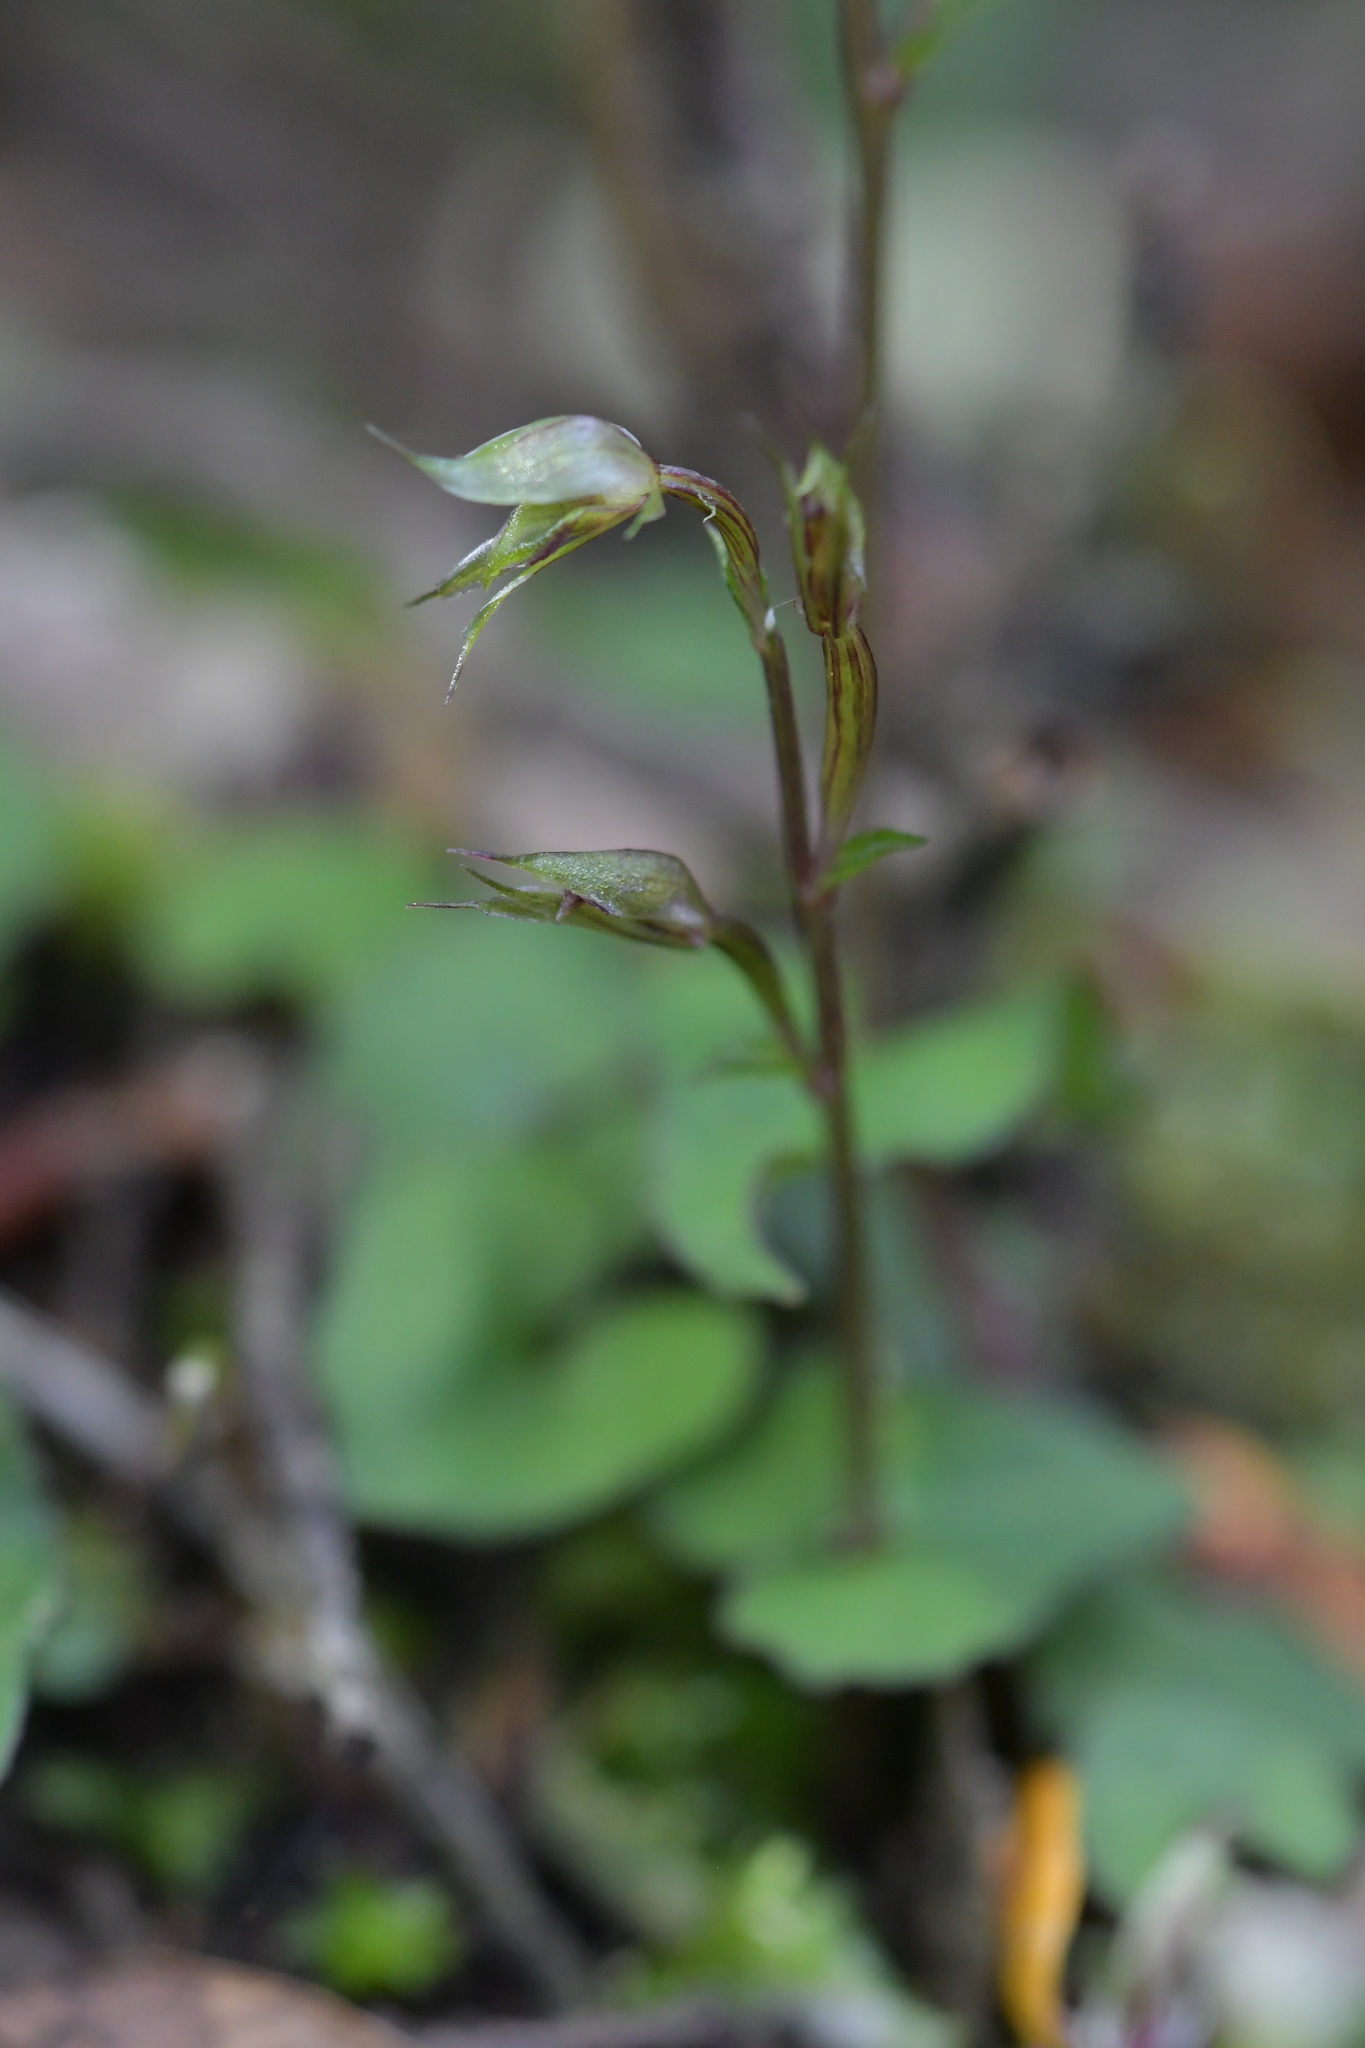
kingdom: Plantae
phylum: Tracheophyta
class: Liliopsida
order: Asparagales
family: Orchidaceae
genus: Acianthus
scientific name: Acianthus sinclairii
